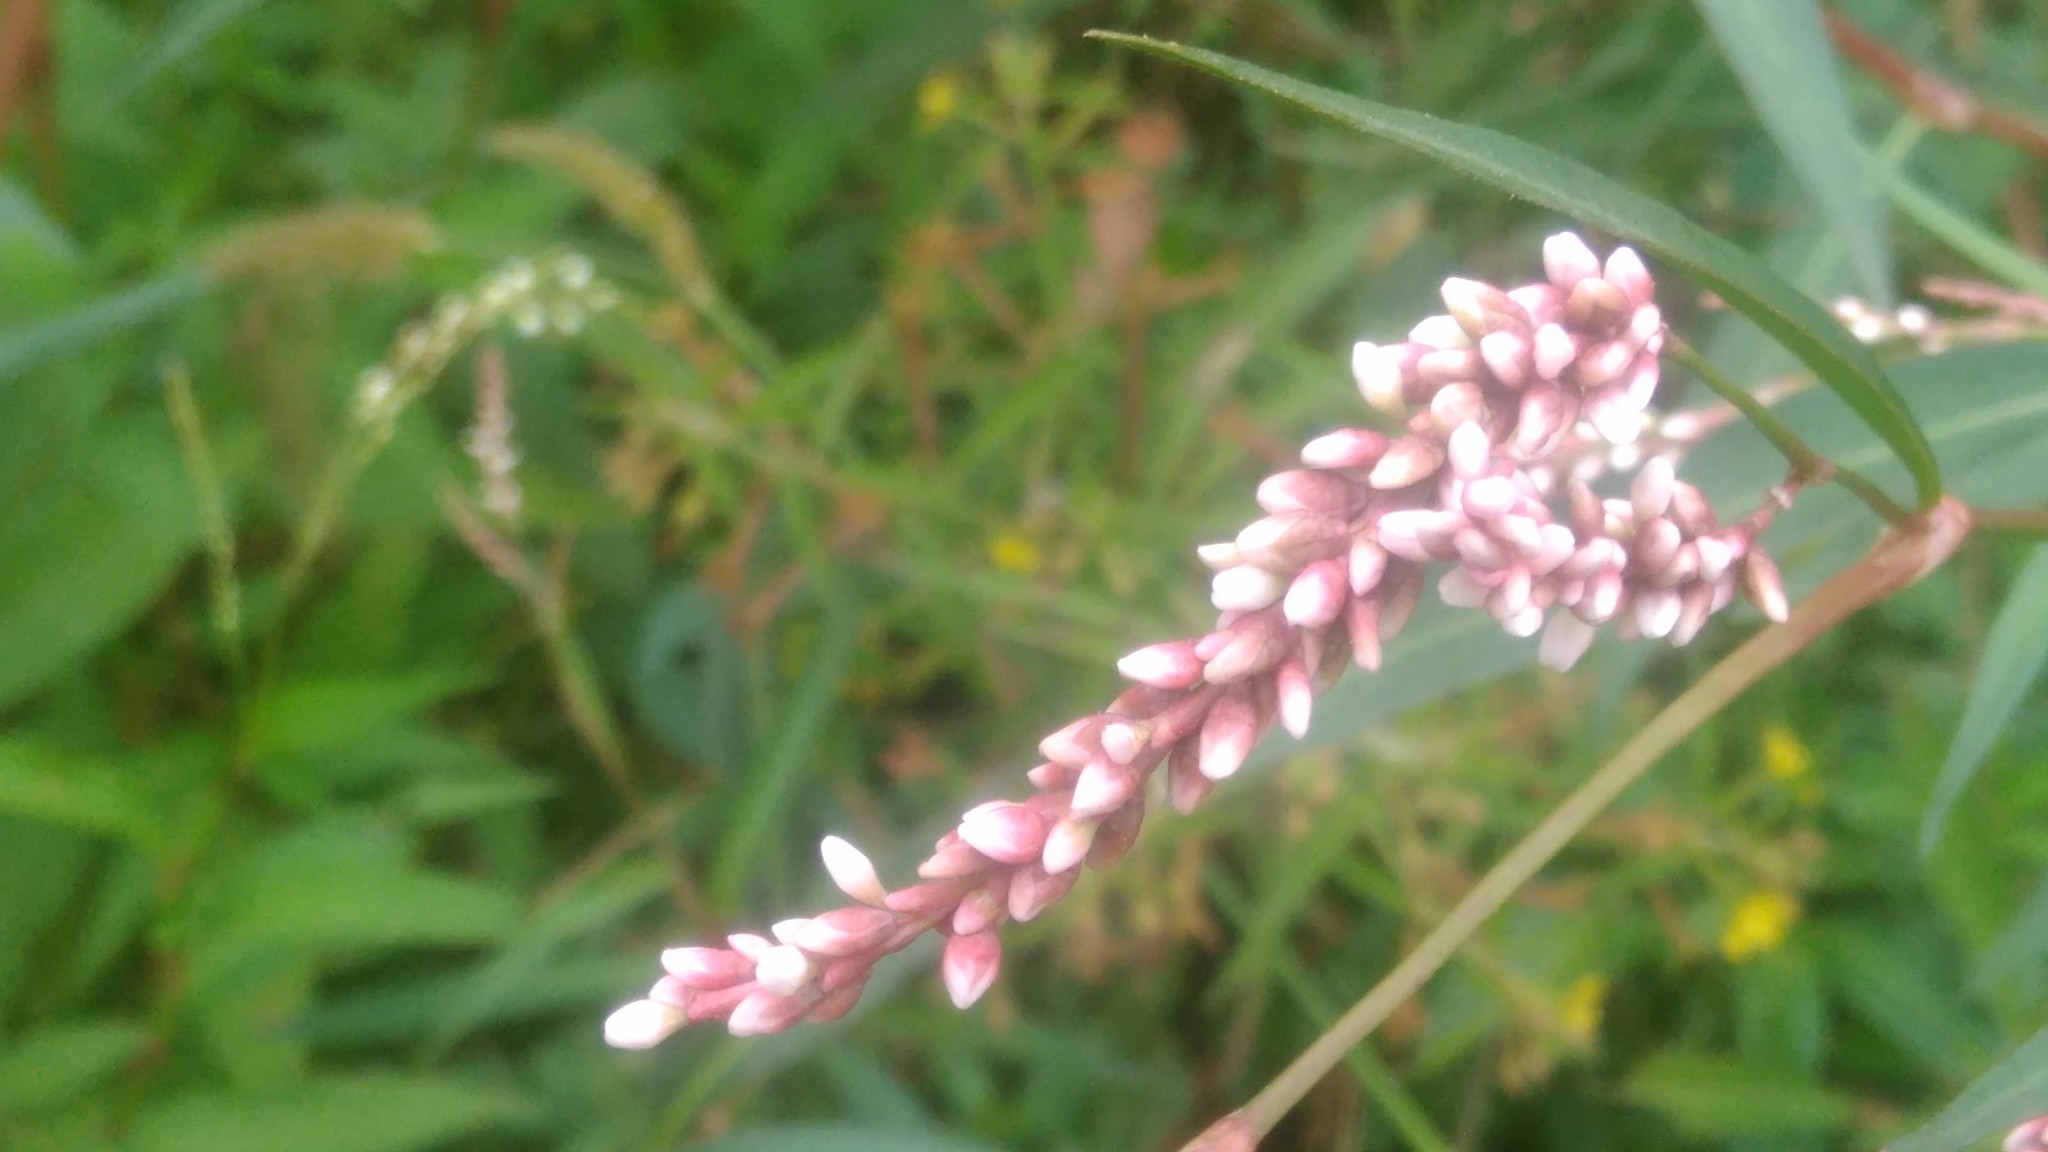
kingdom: Plantae
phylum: Tracheophyta
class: Magnoliopsida
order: Caryophyllales
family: Polygonaceae
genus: Persicaria
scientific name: Persicaria punctata
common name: Dotted smartweed
